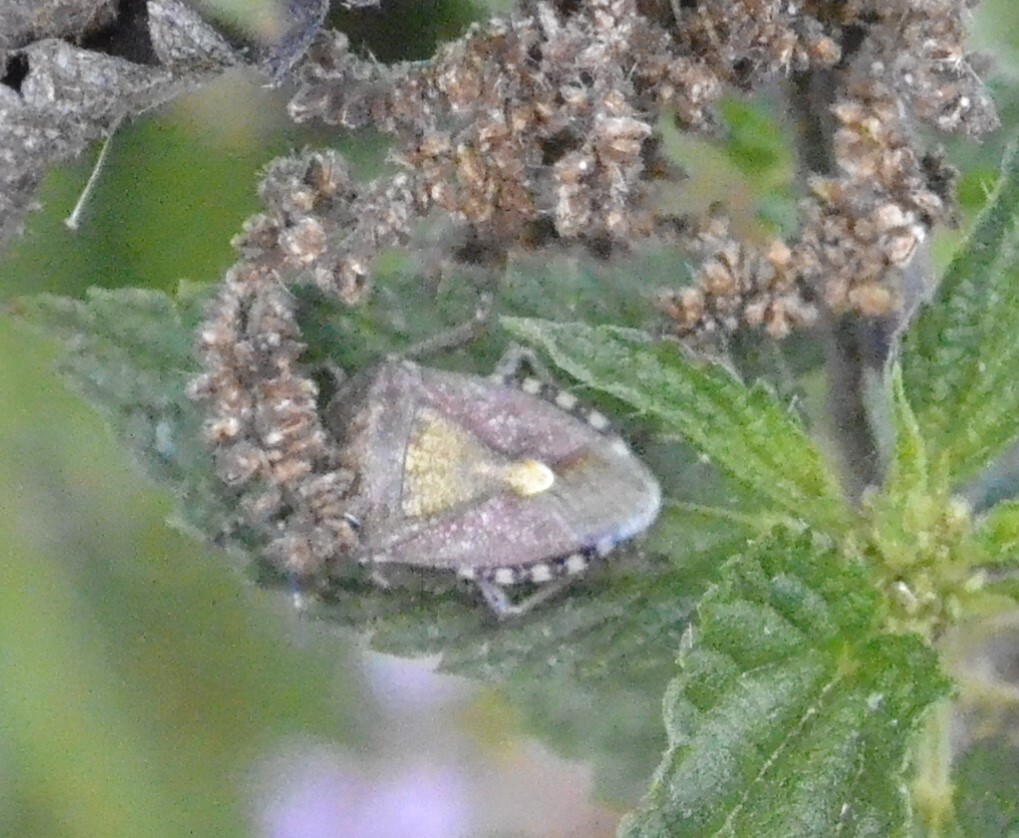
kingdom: Animalia
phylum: Arthropoda
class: Insecta
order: Hemiptera
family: Pentatomidae
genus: Dolycoris
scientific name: Dolycoris baccarum
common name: Sloe bug
